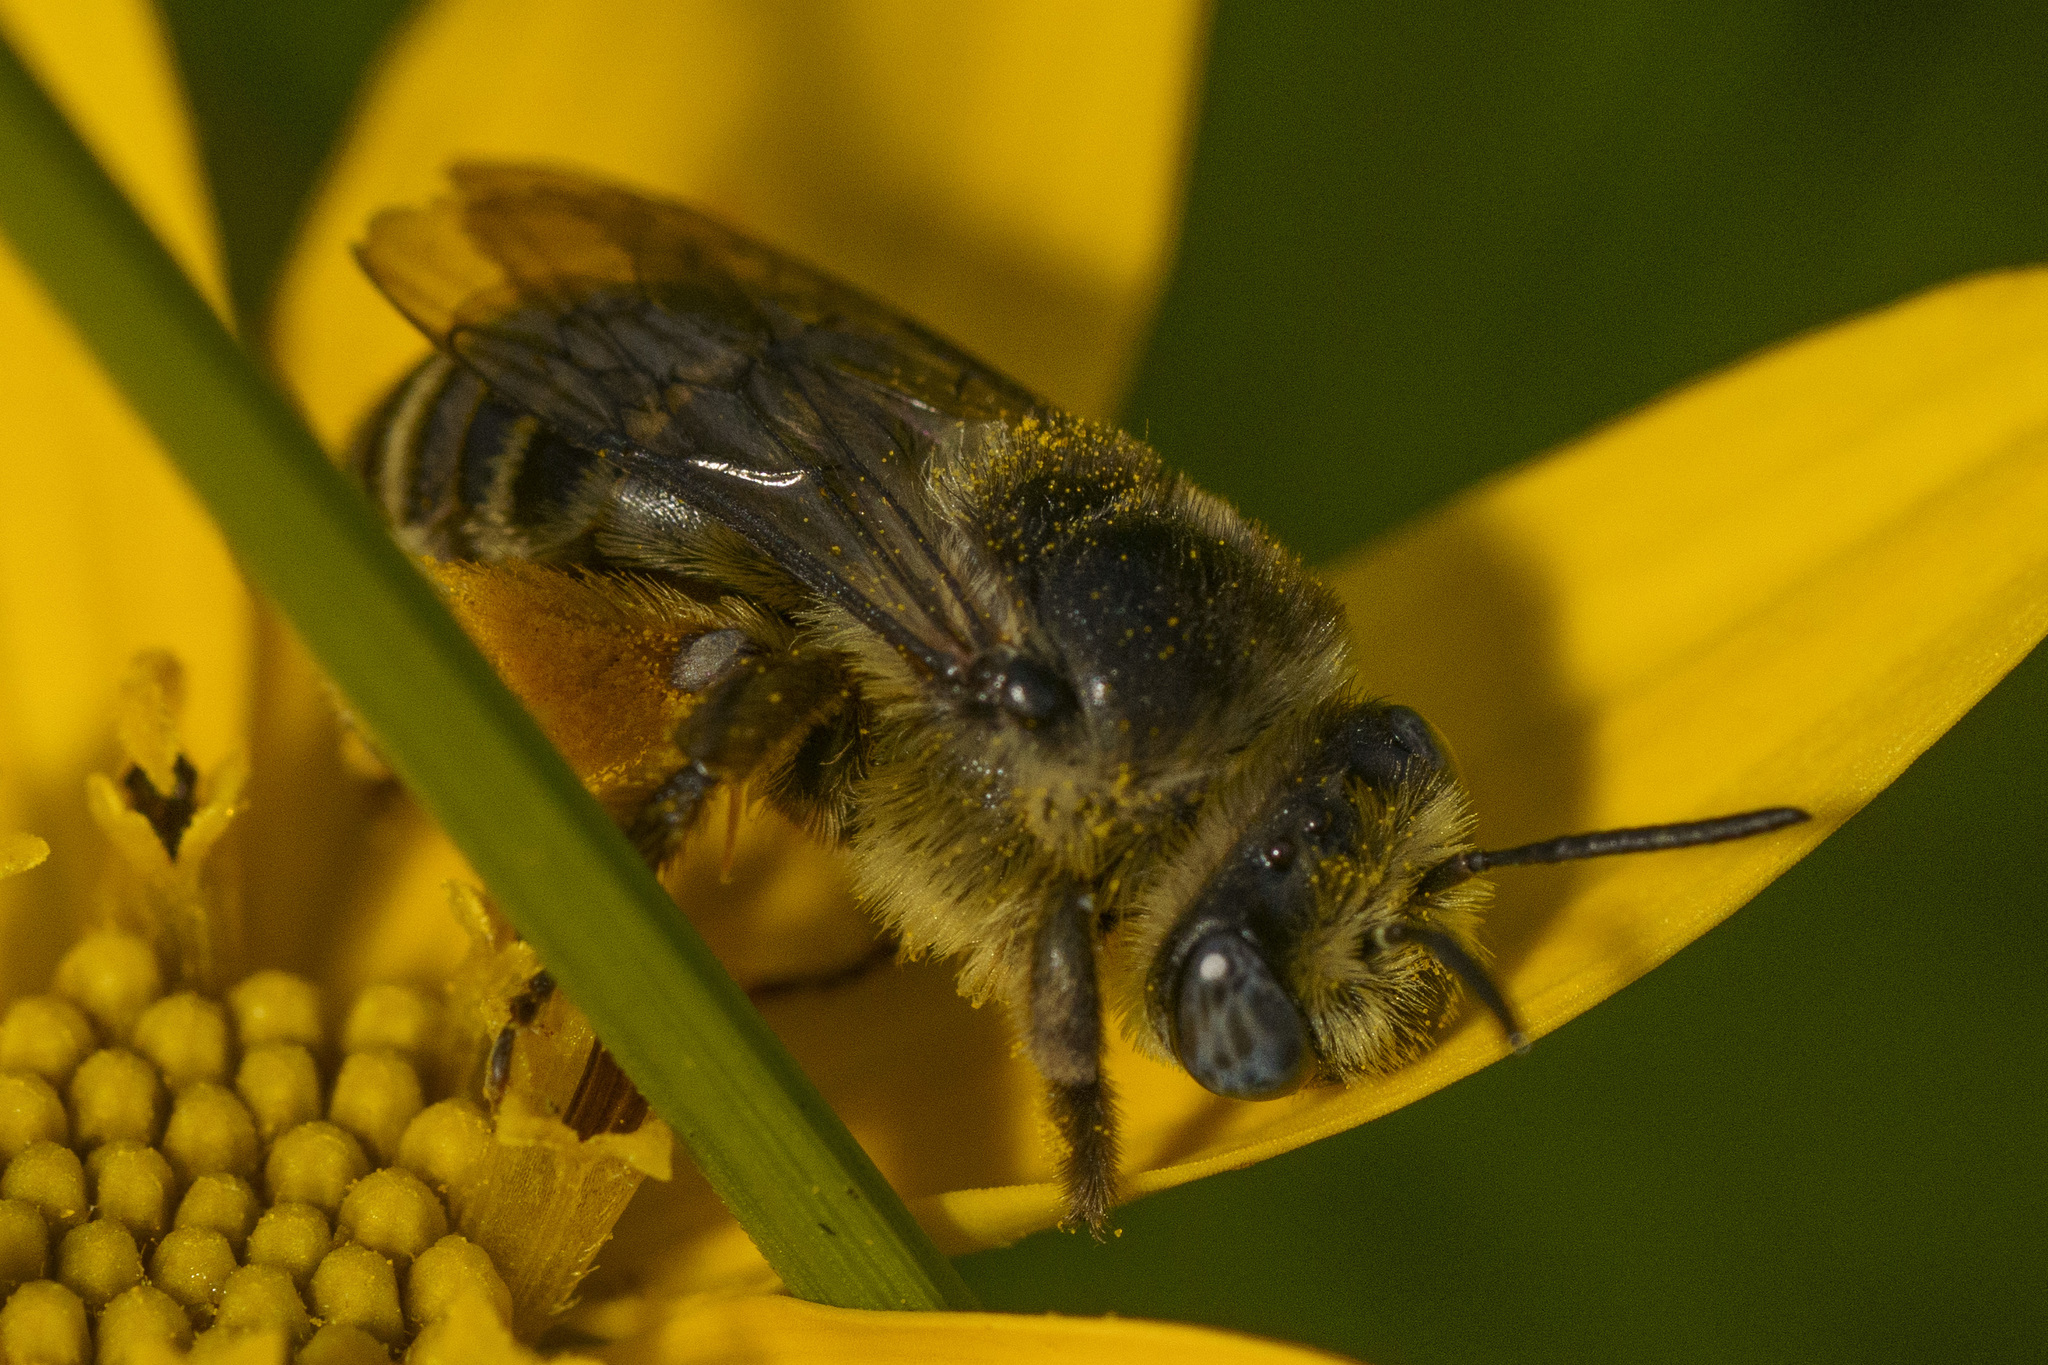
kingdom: Animalia
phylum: Arthropoda
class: Insecta
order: Hymenoptera
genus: Eumelissodes
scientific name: Eumelissodes
